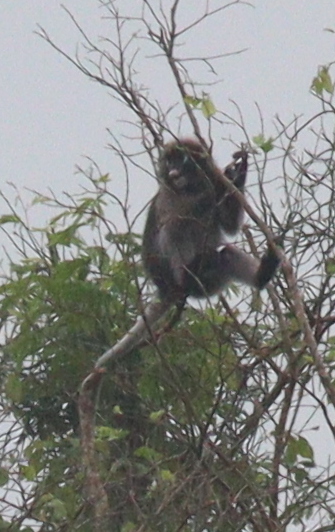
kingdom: Animalia
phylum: Chordata
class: Mammalia
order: Primates
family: Cercopithecidae
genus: Trachypithecus
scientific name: Trachypithecus obscurus
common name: Dusky leaf-monkey
